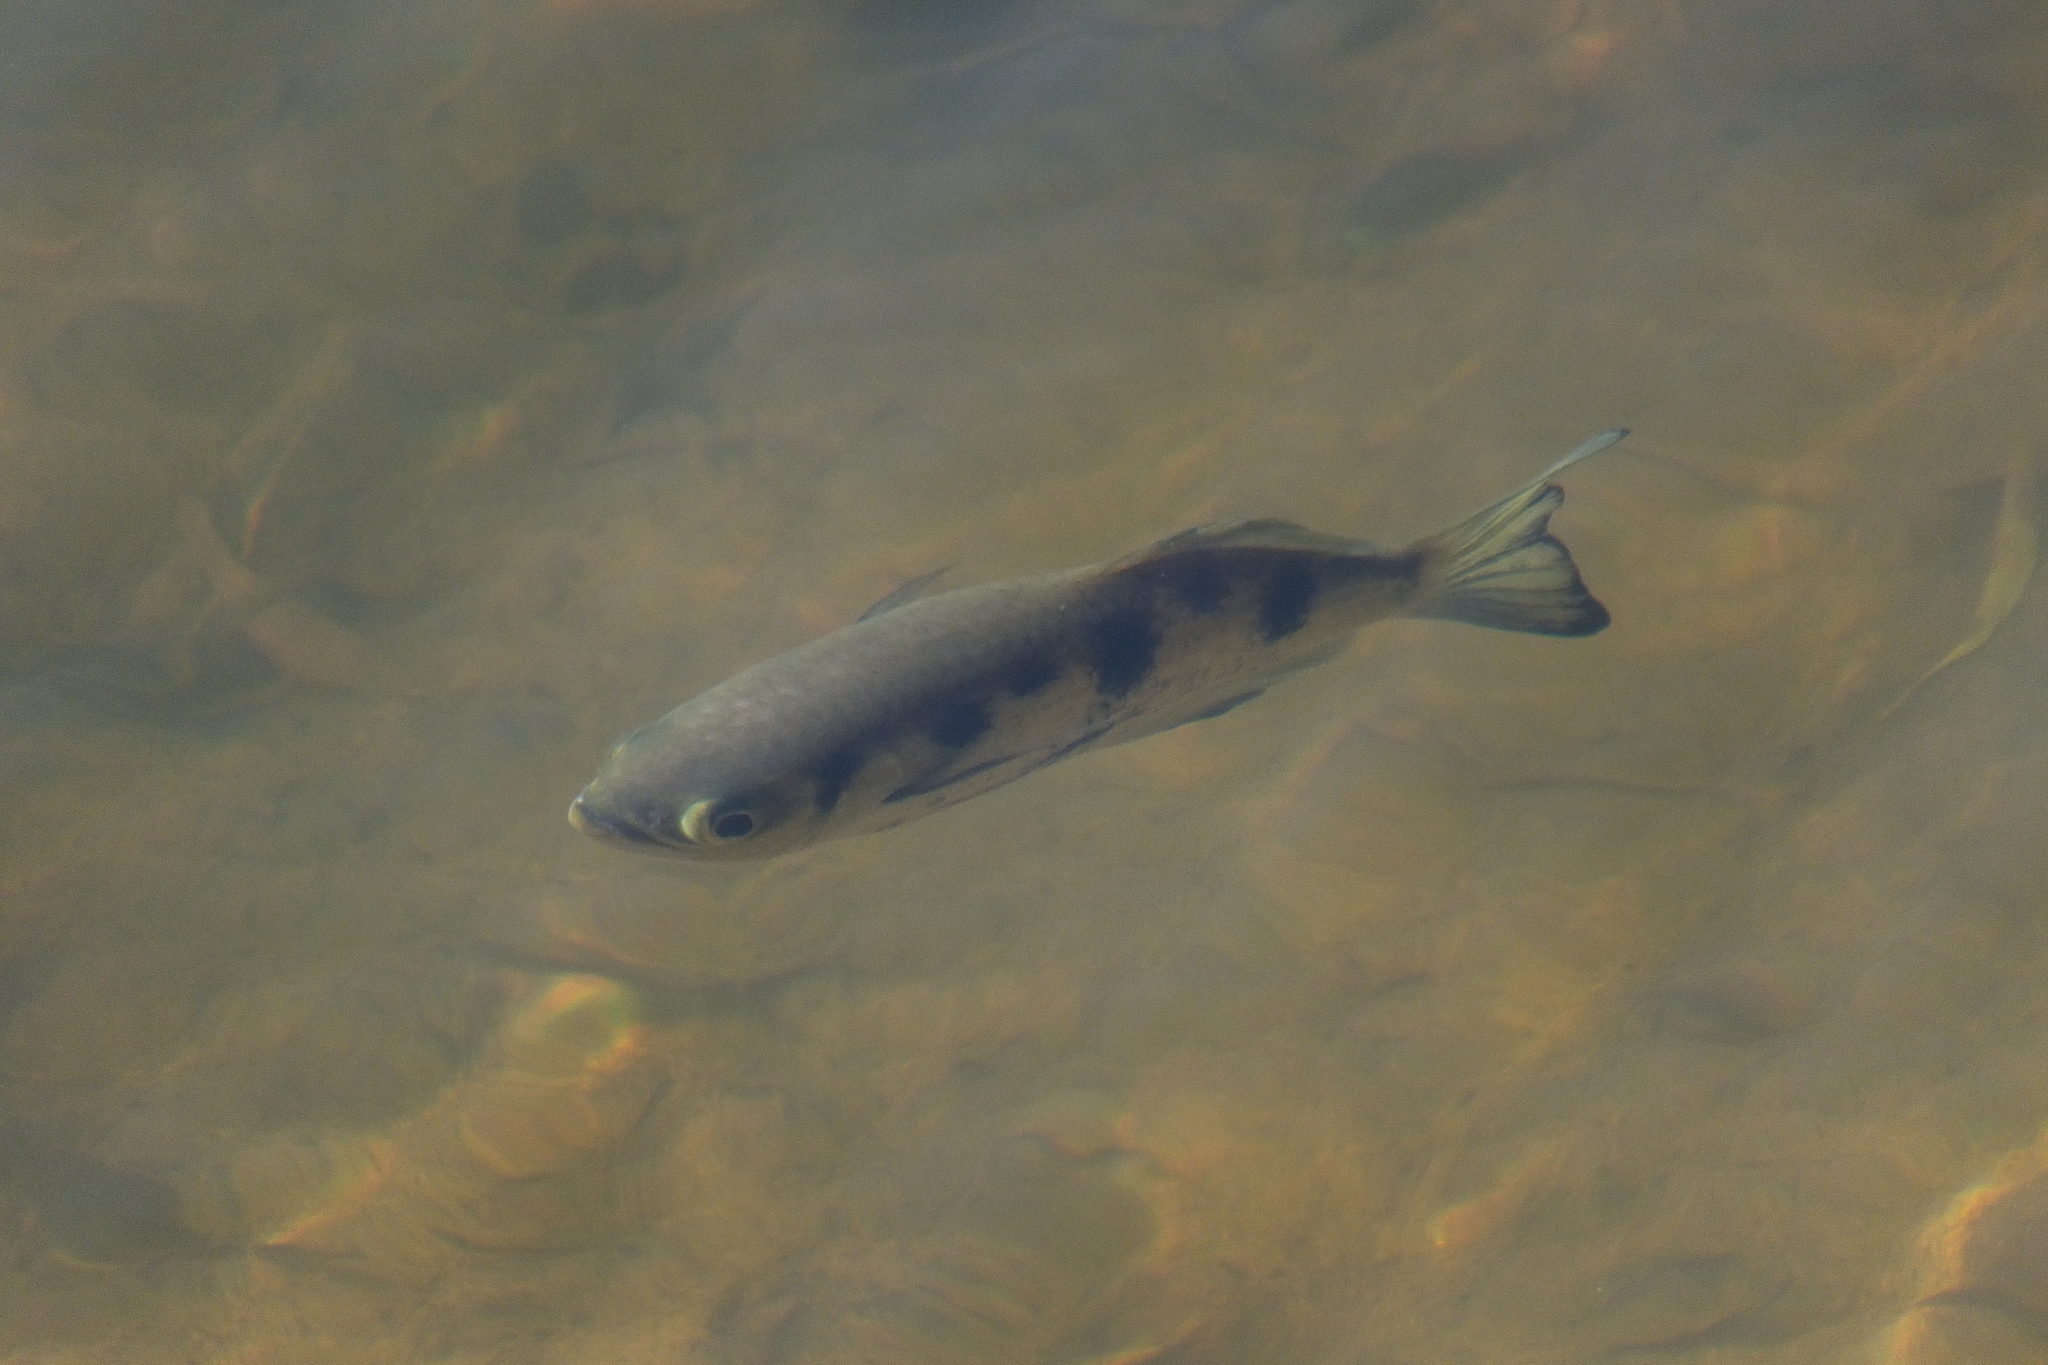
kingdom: Animalia
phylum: Chordata
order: Perciformes
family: Toxotidae
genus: Toxotes
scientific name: Toxotes chatareus
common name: Spotted archerfish
